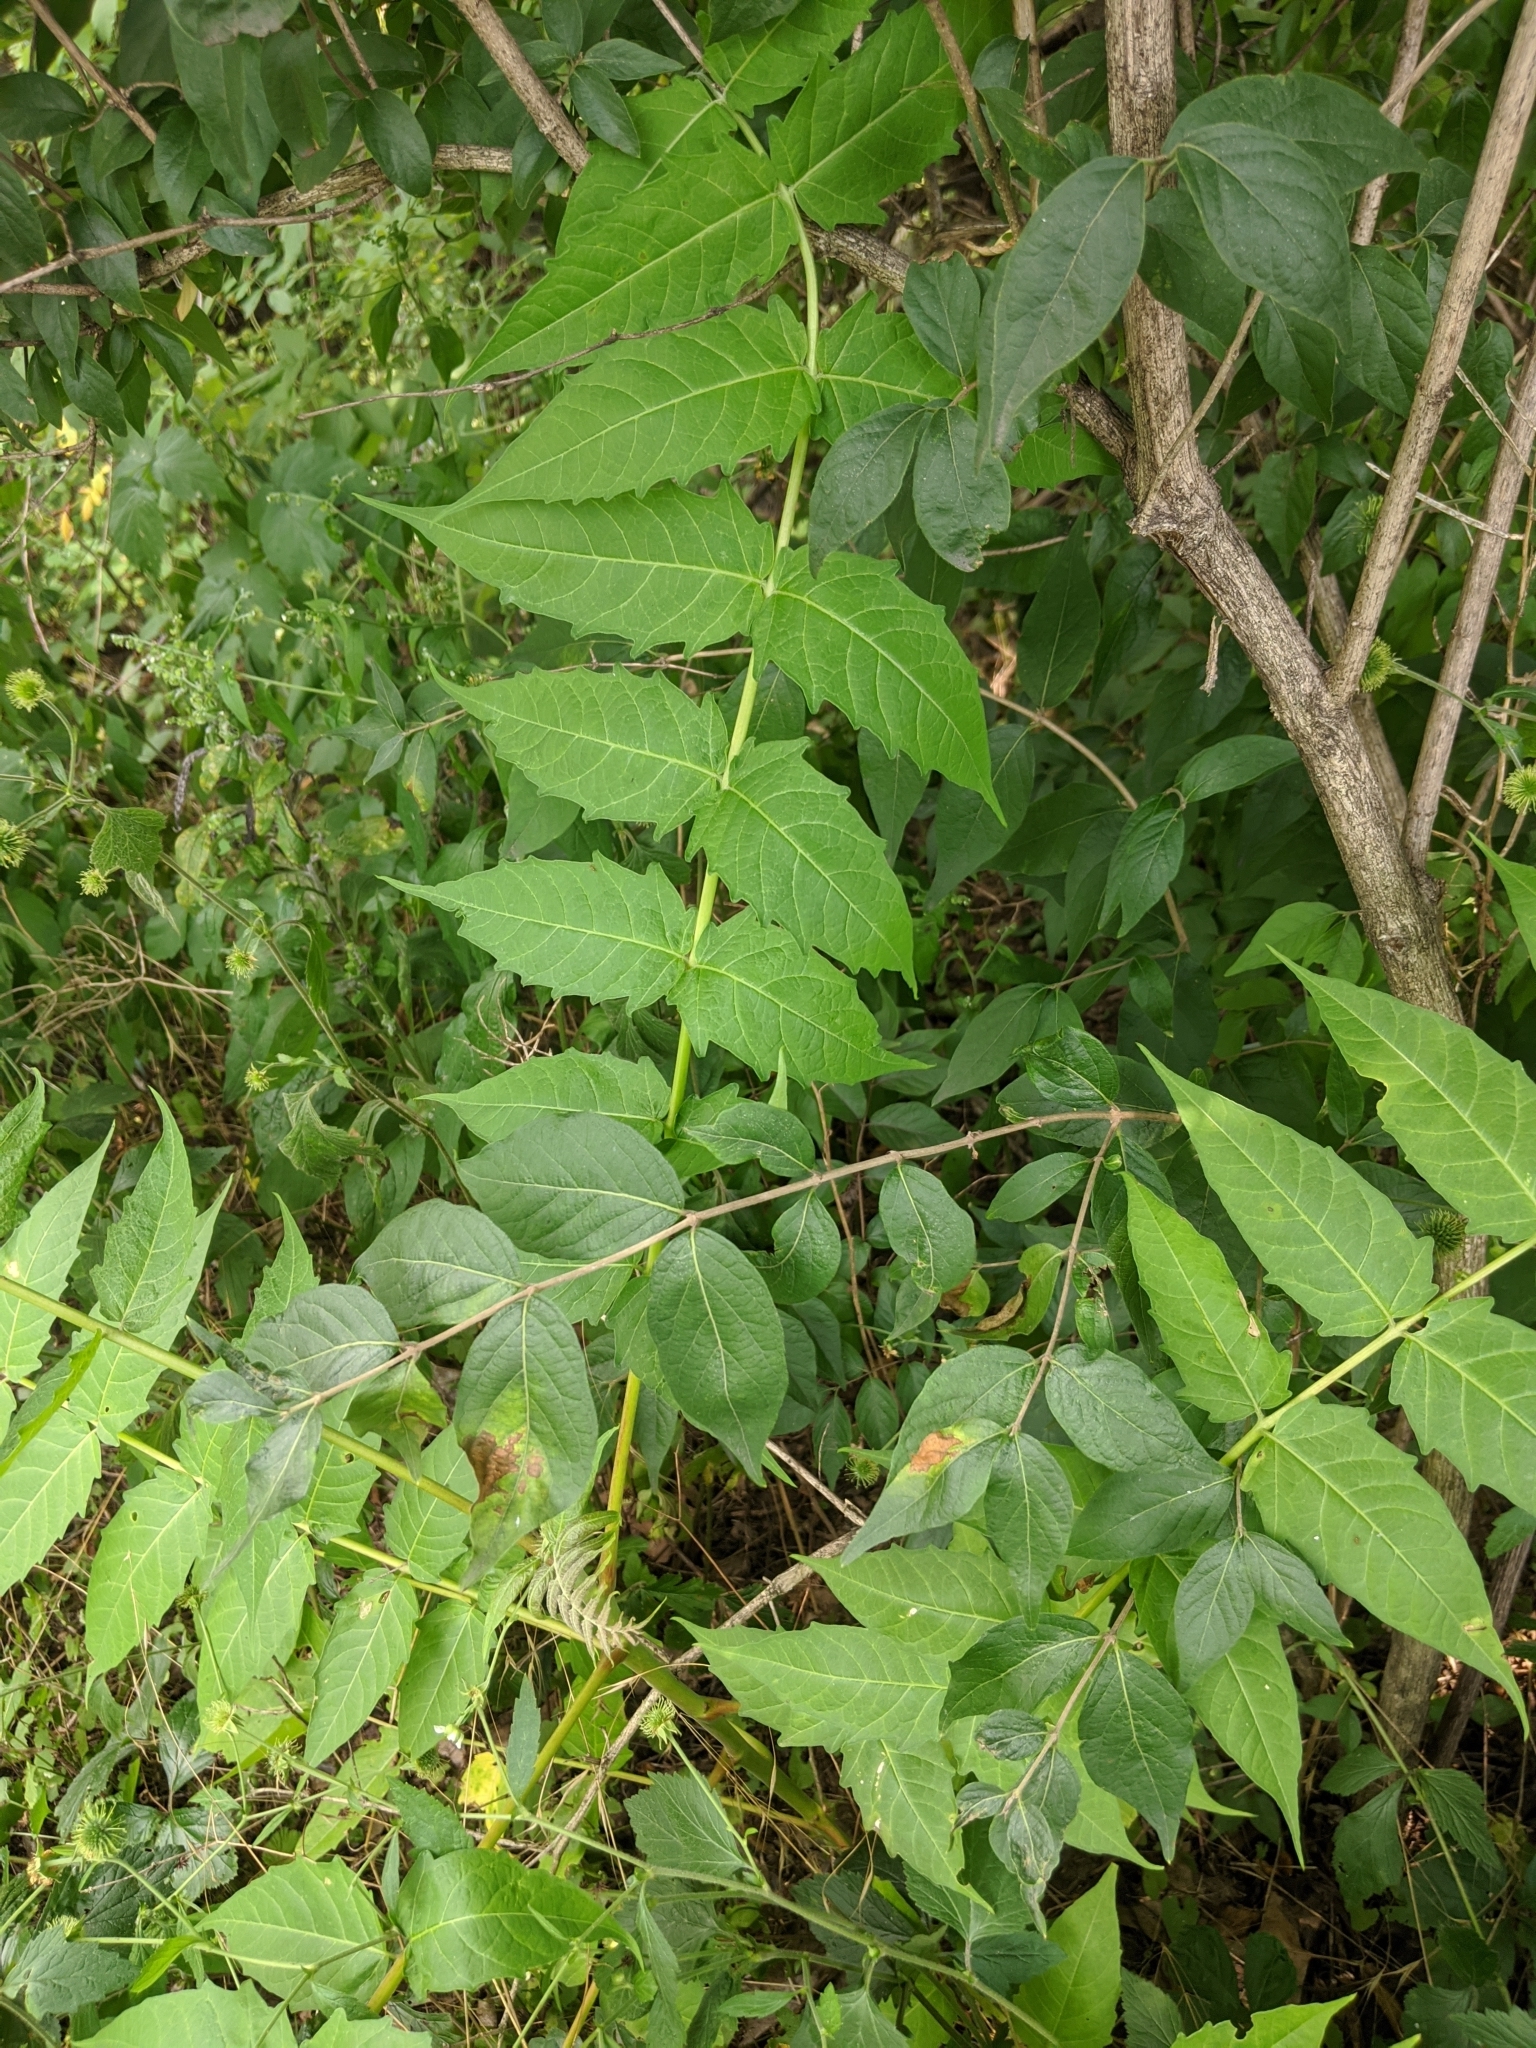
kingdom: Plantae
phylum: Tracheophyta
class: Magnoliopsida
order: Sapindales
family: Simaroubaceae
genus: Ailanthus
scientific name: Ailanthus altissima
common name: Tree-of-heaven
